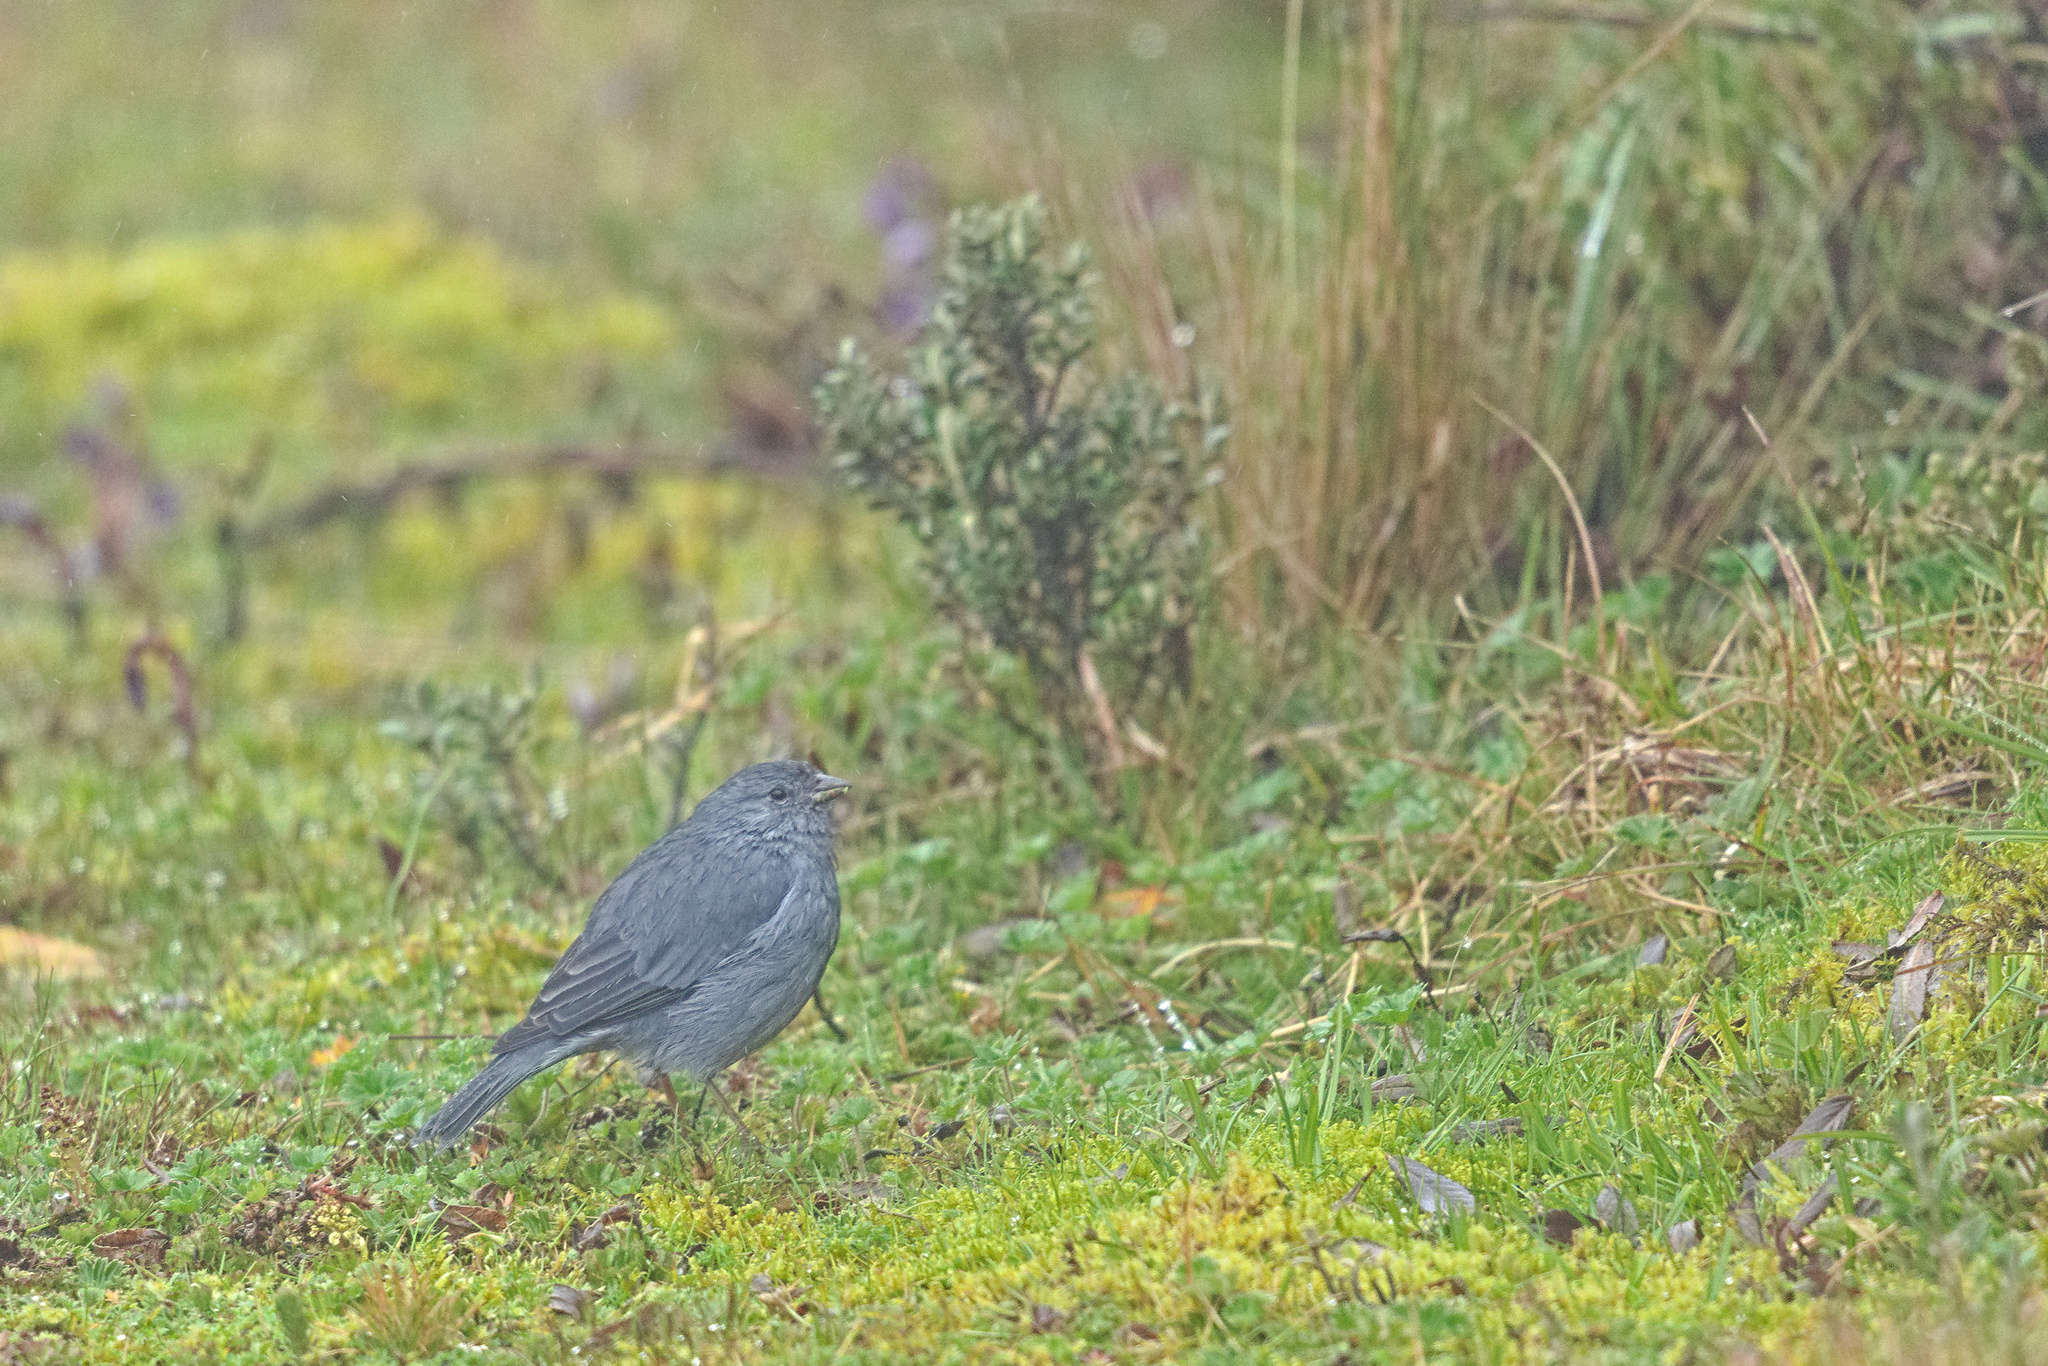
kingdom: Animalia
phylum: Chordata
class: Aves
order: Passeriformes
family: Thraupidae
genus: Geospizopsis
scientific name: Geospizopsis unicolor
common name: Plumbeous sierra-finch
